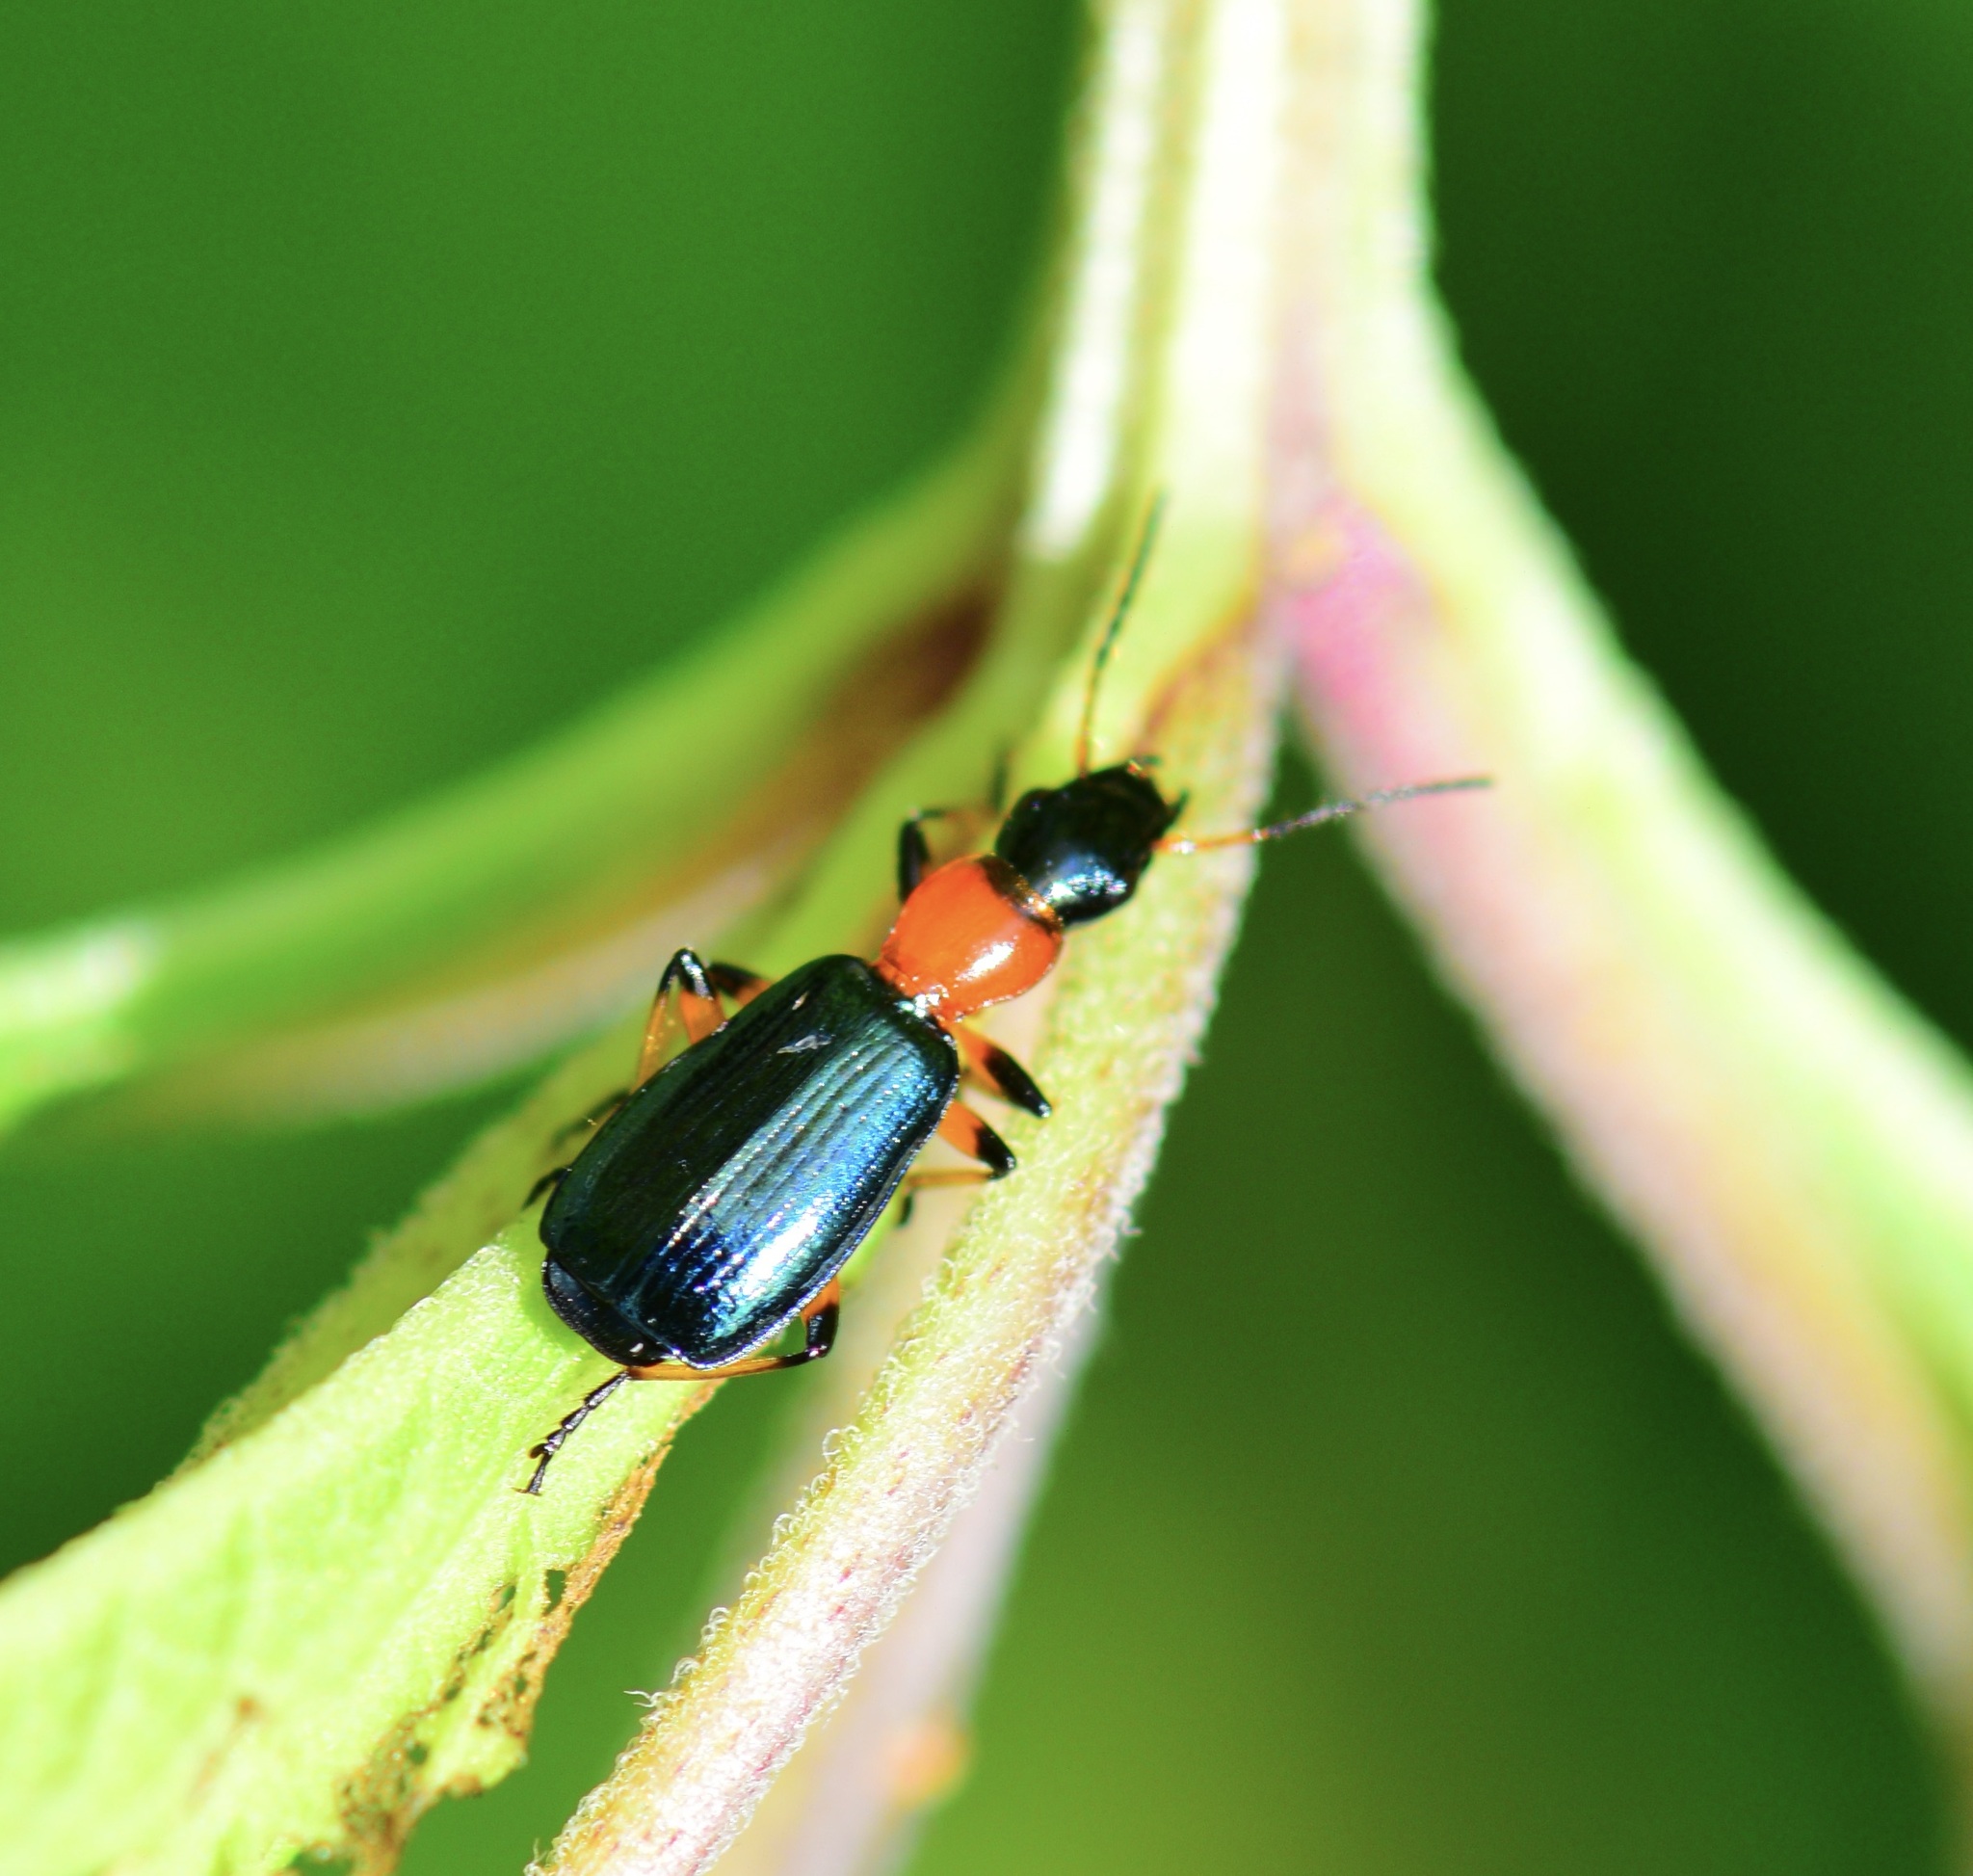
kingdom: Animalia
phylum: Arthropoda
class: Insecta
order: Coleoptera
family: Carabidae
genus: Calleida
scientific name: Calleida punctata
